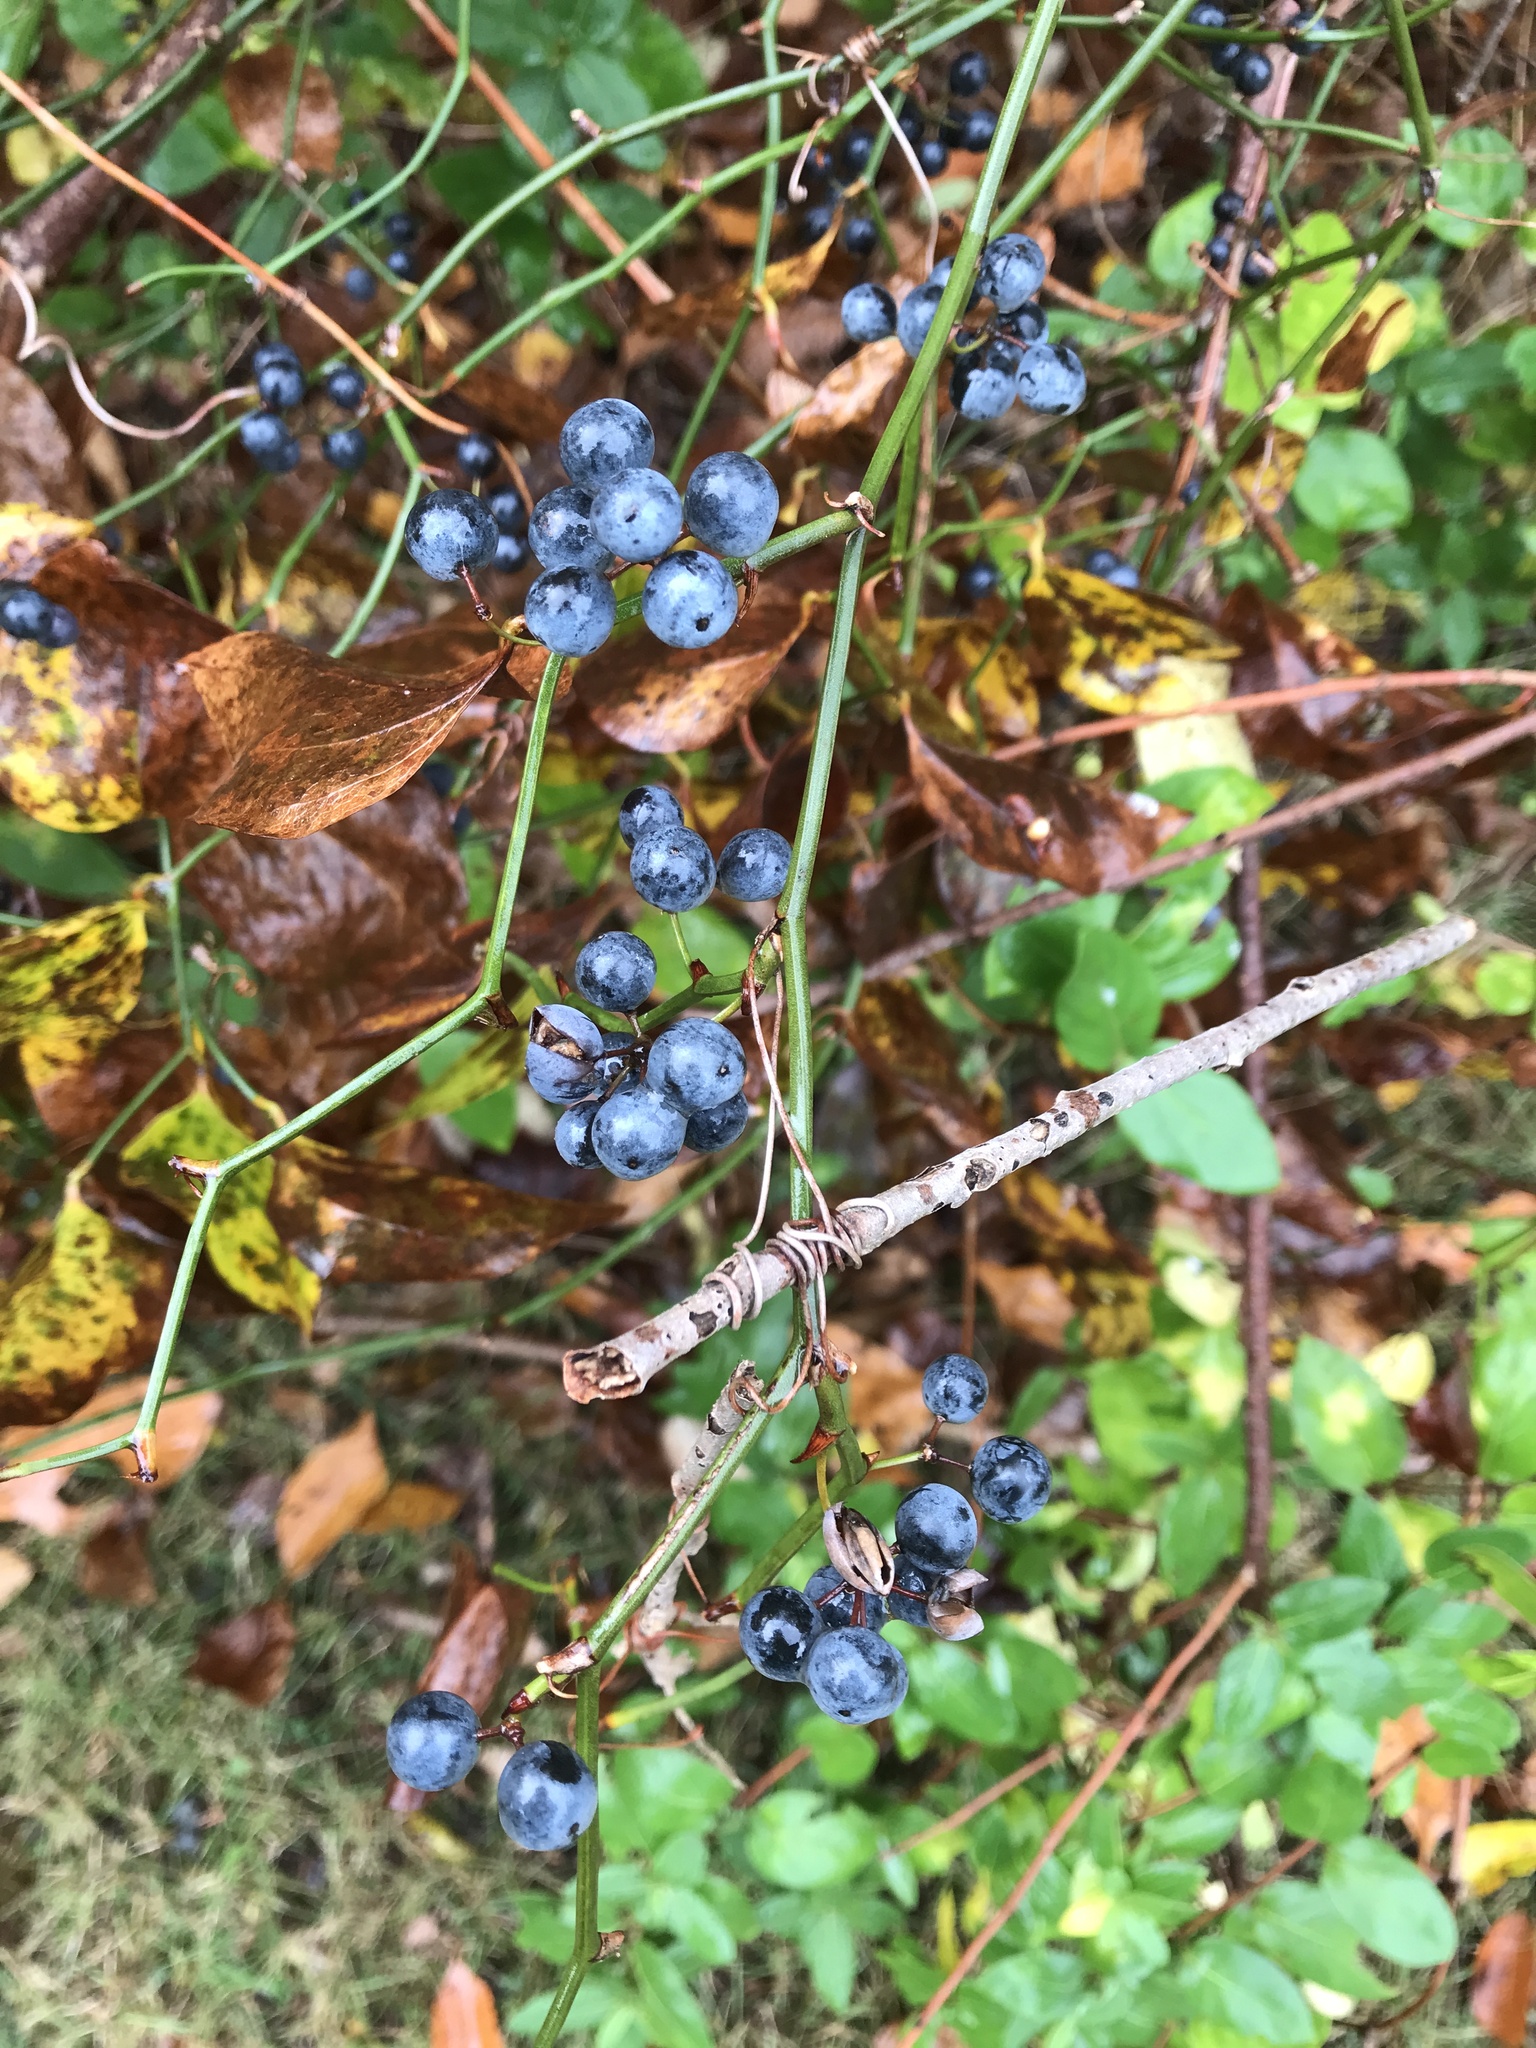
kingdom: Plantae
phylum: Tracheophyta
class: Liliopsida
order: Liliales
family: Smilacaceae
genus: Smilax
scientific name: Smilax rotundifolia
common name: Bullbriar
